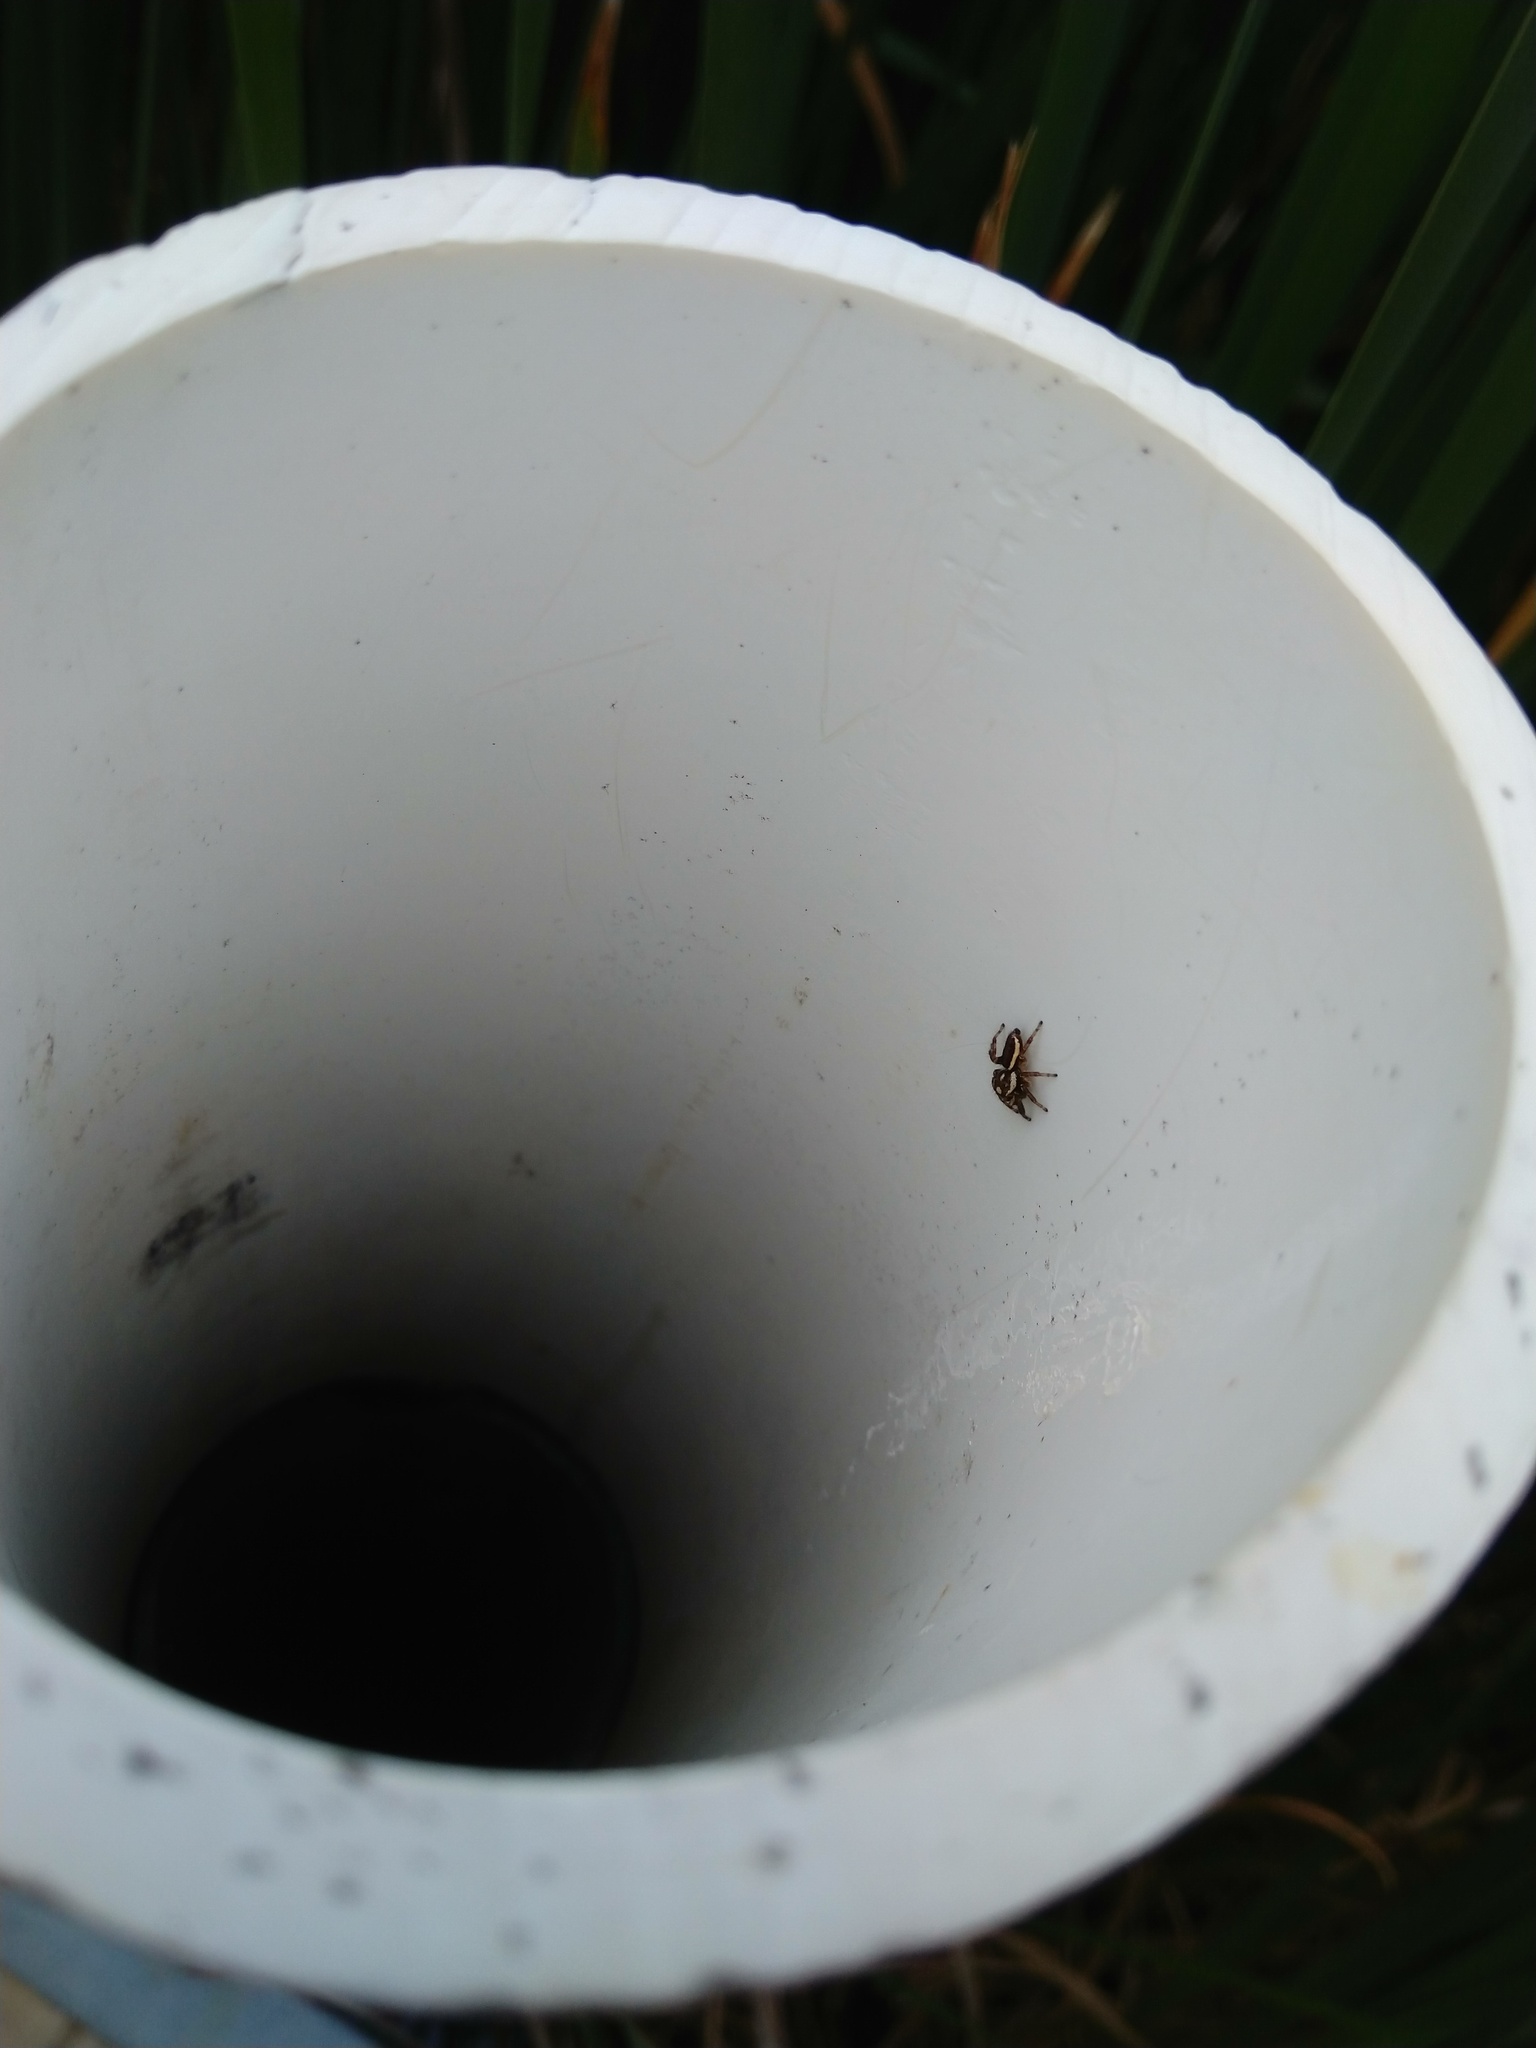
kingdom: Animalia
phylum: Arthropoda
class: Arachnida
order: Araneae
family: Salticidae
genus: Eris
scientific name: Eris flava
